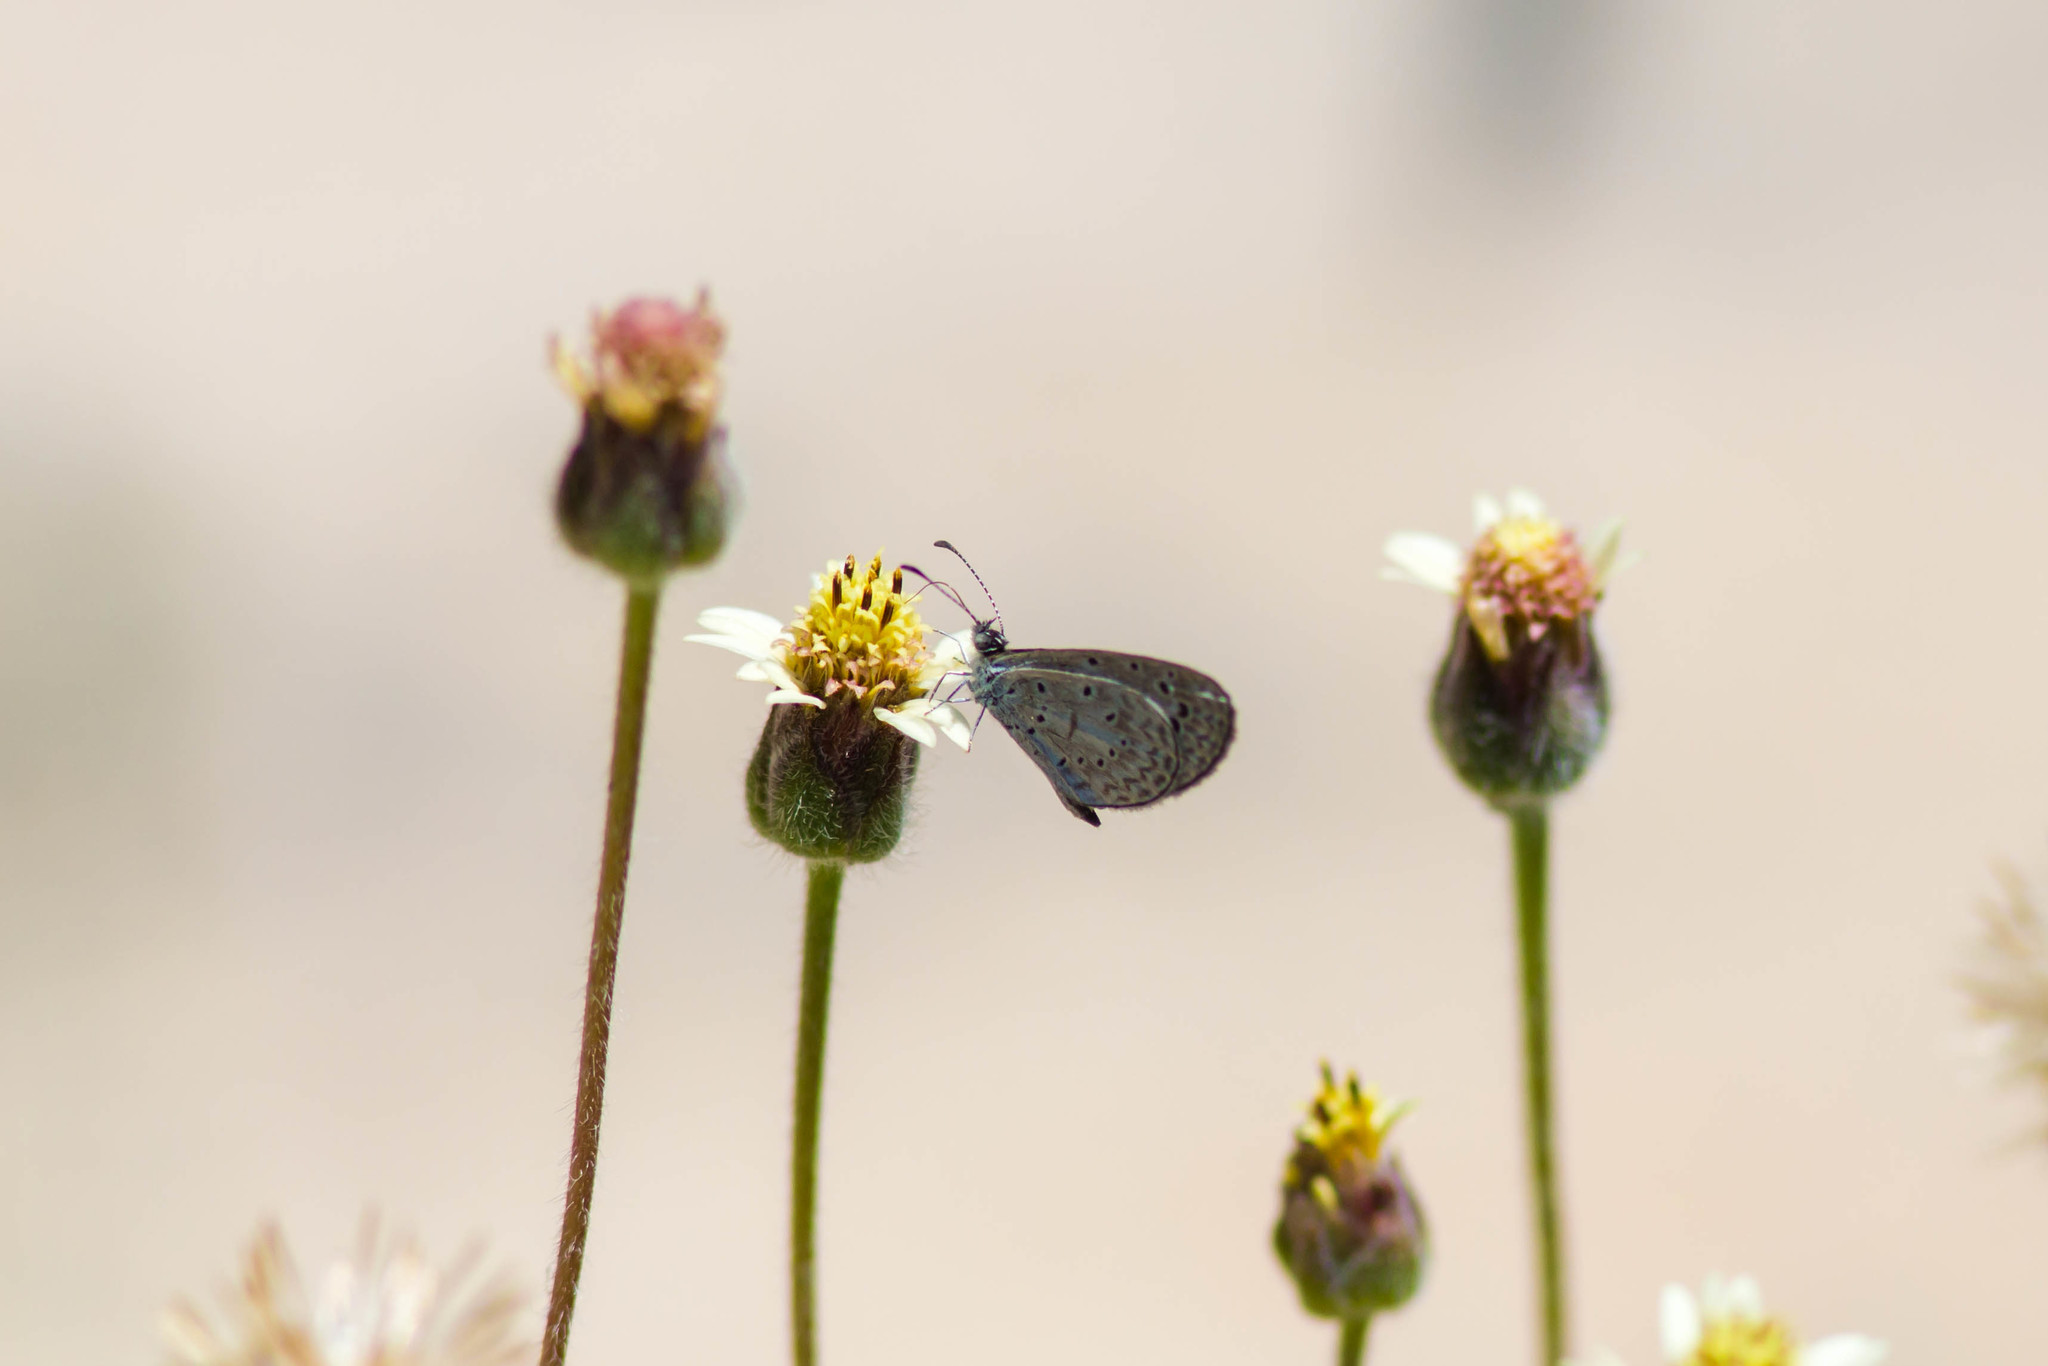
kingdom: Animalia
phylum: Arthropoda
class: Insecta
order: Lepidoptera
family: Lycaenidae
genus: Lycaena
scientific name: Lycaena cyna
